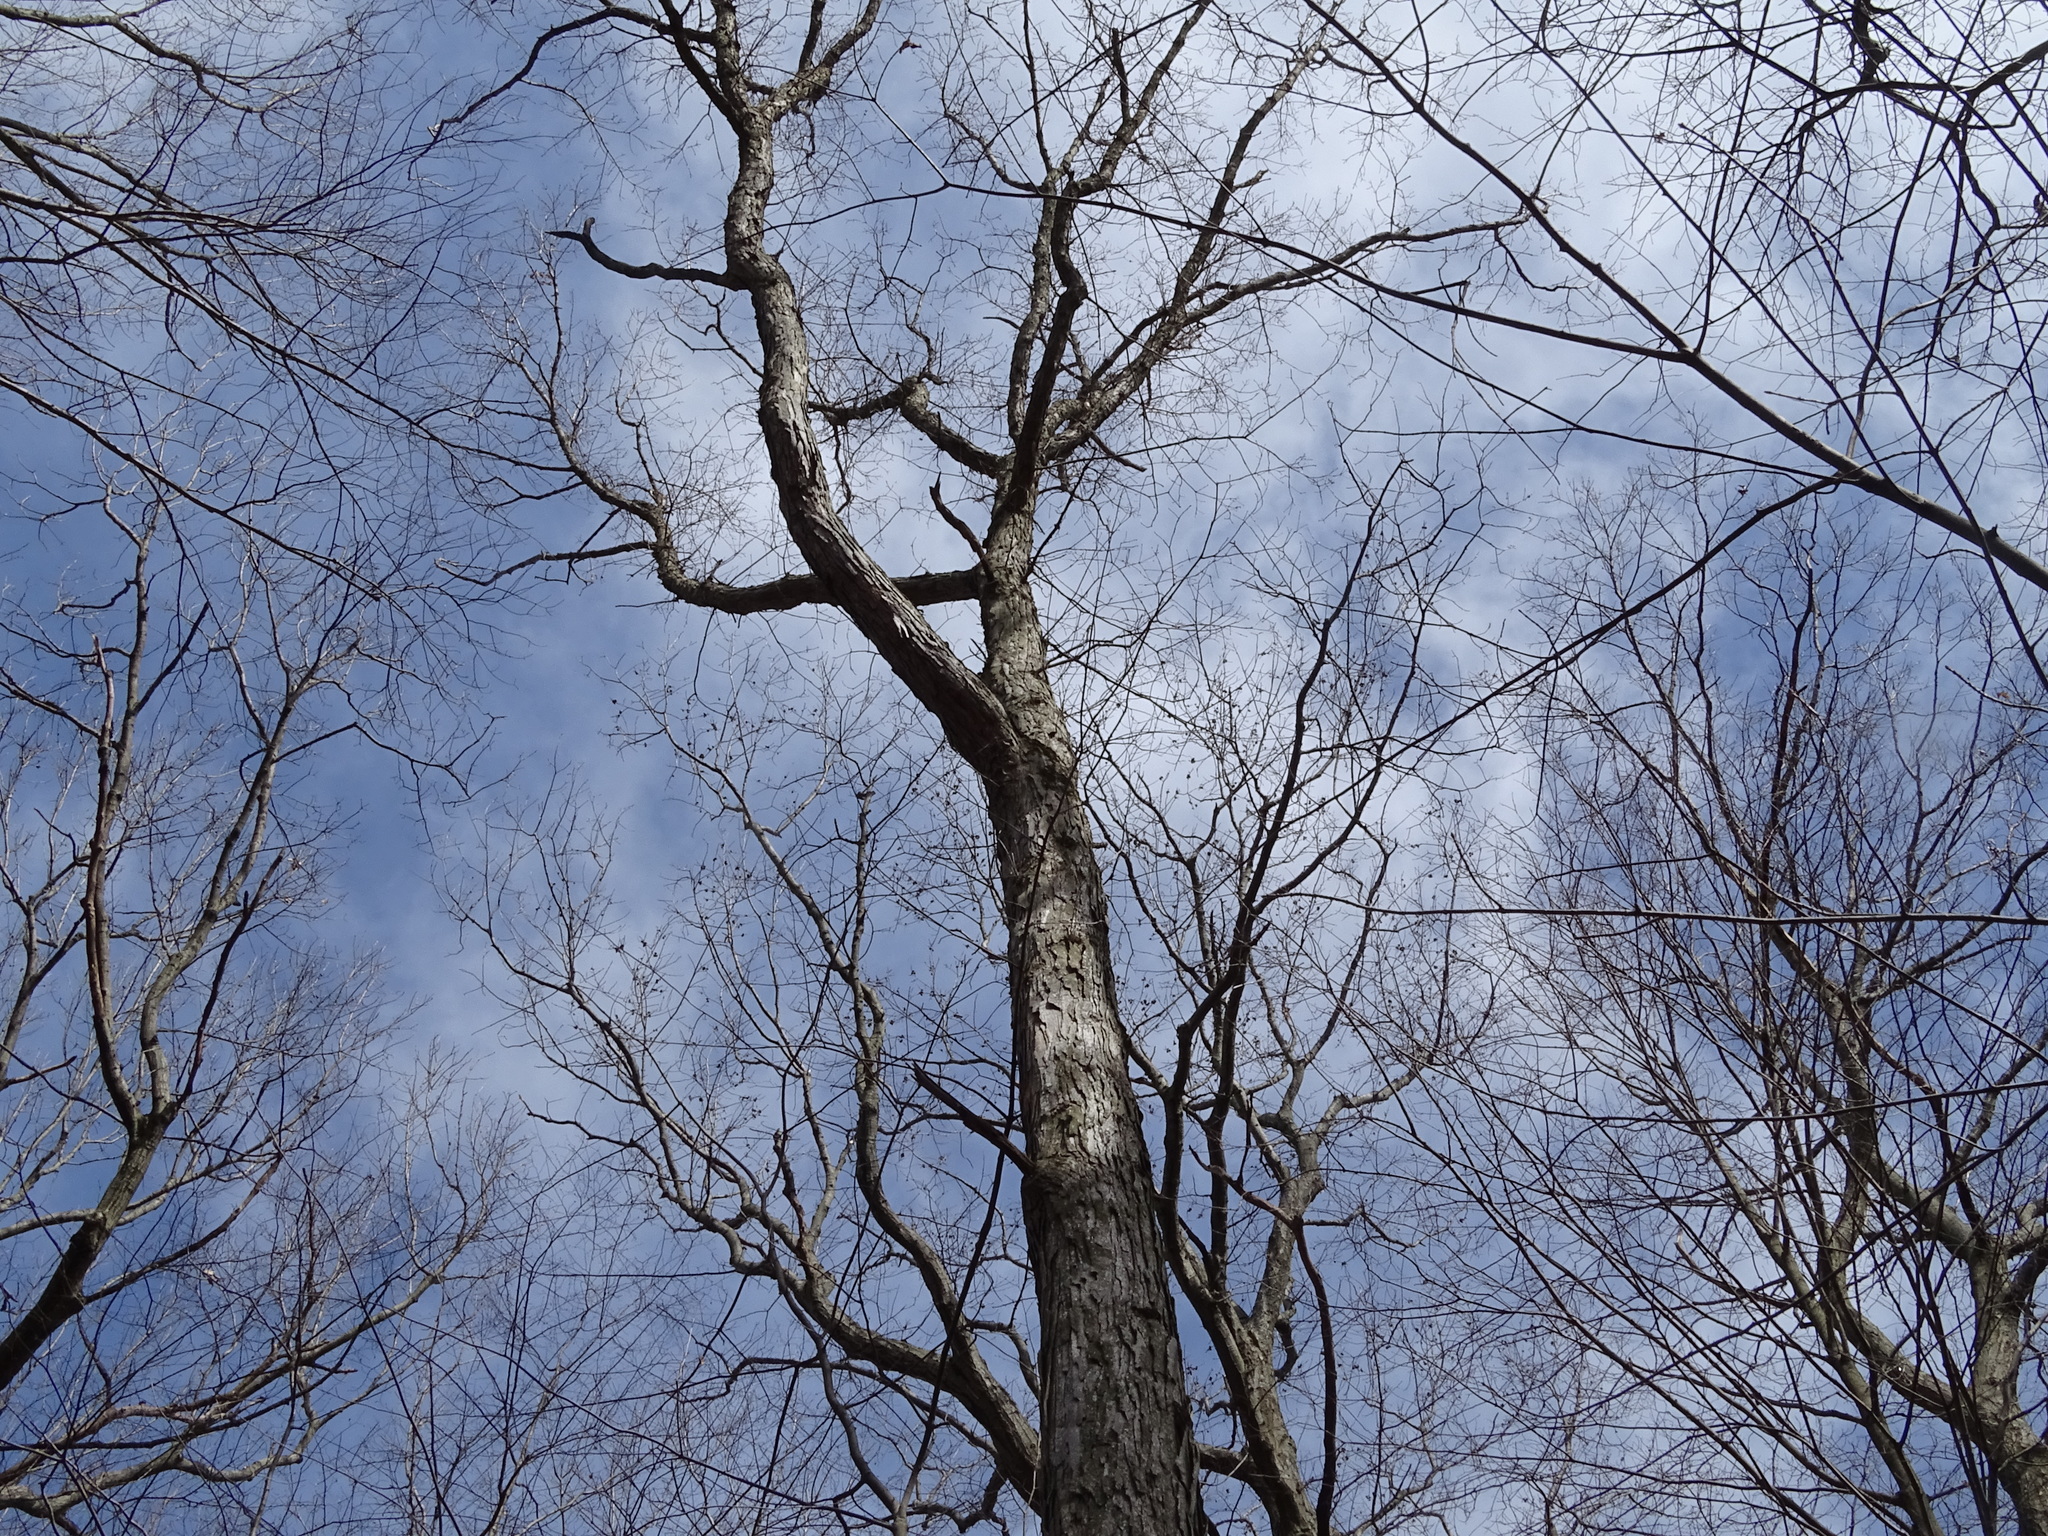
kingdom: Plantae
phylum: Tracheophyta
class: Magnoliopsida
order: Fagales
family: Fagaceae
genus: Quercus
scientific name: Quercus alba
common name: White oak
